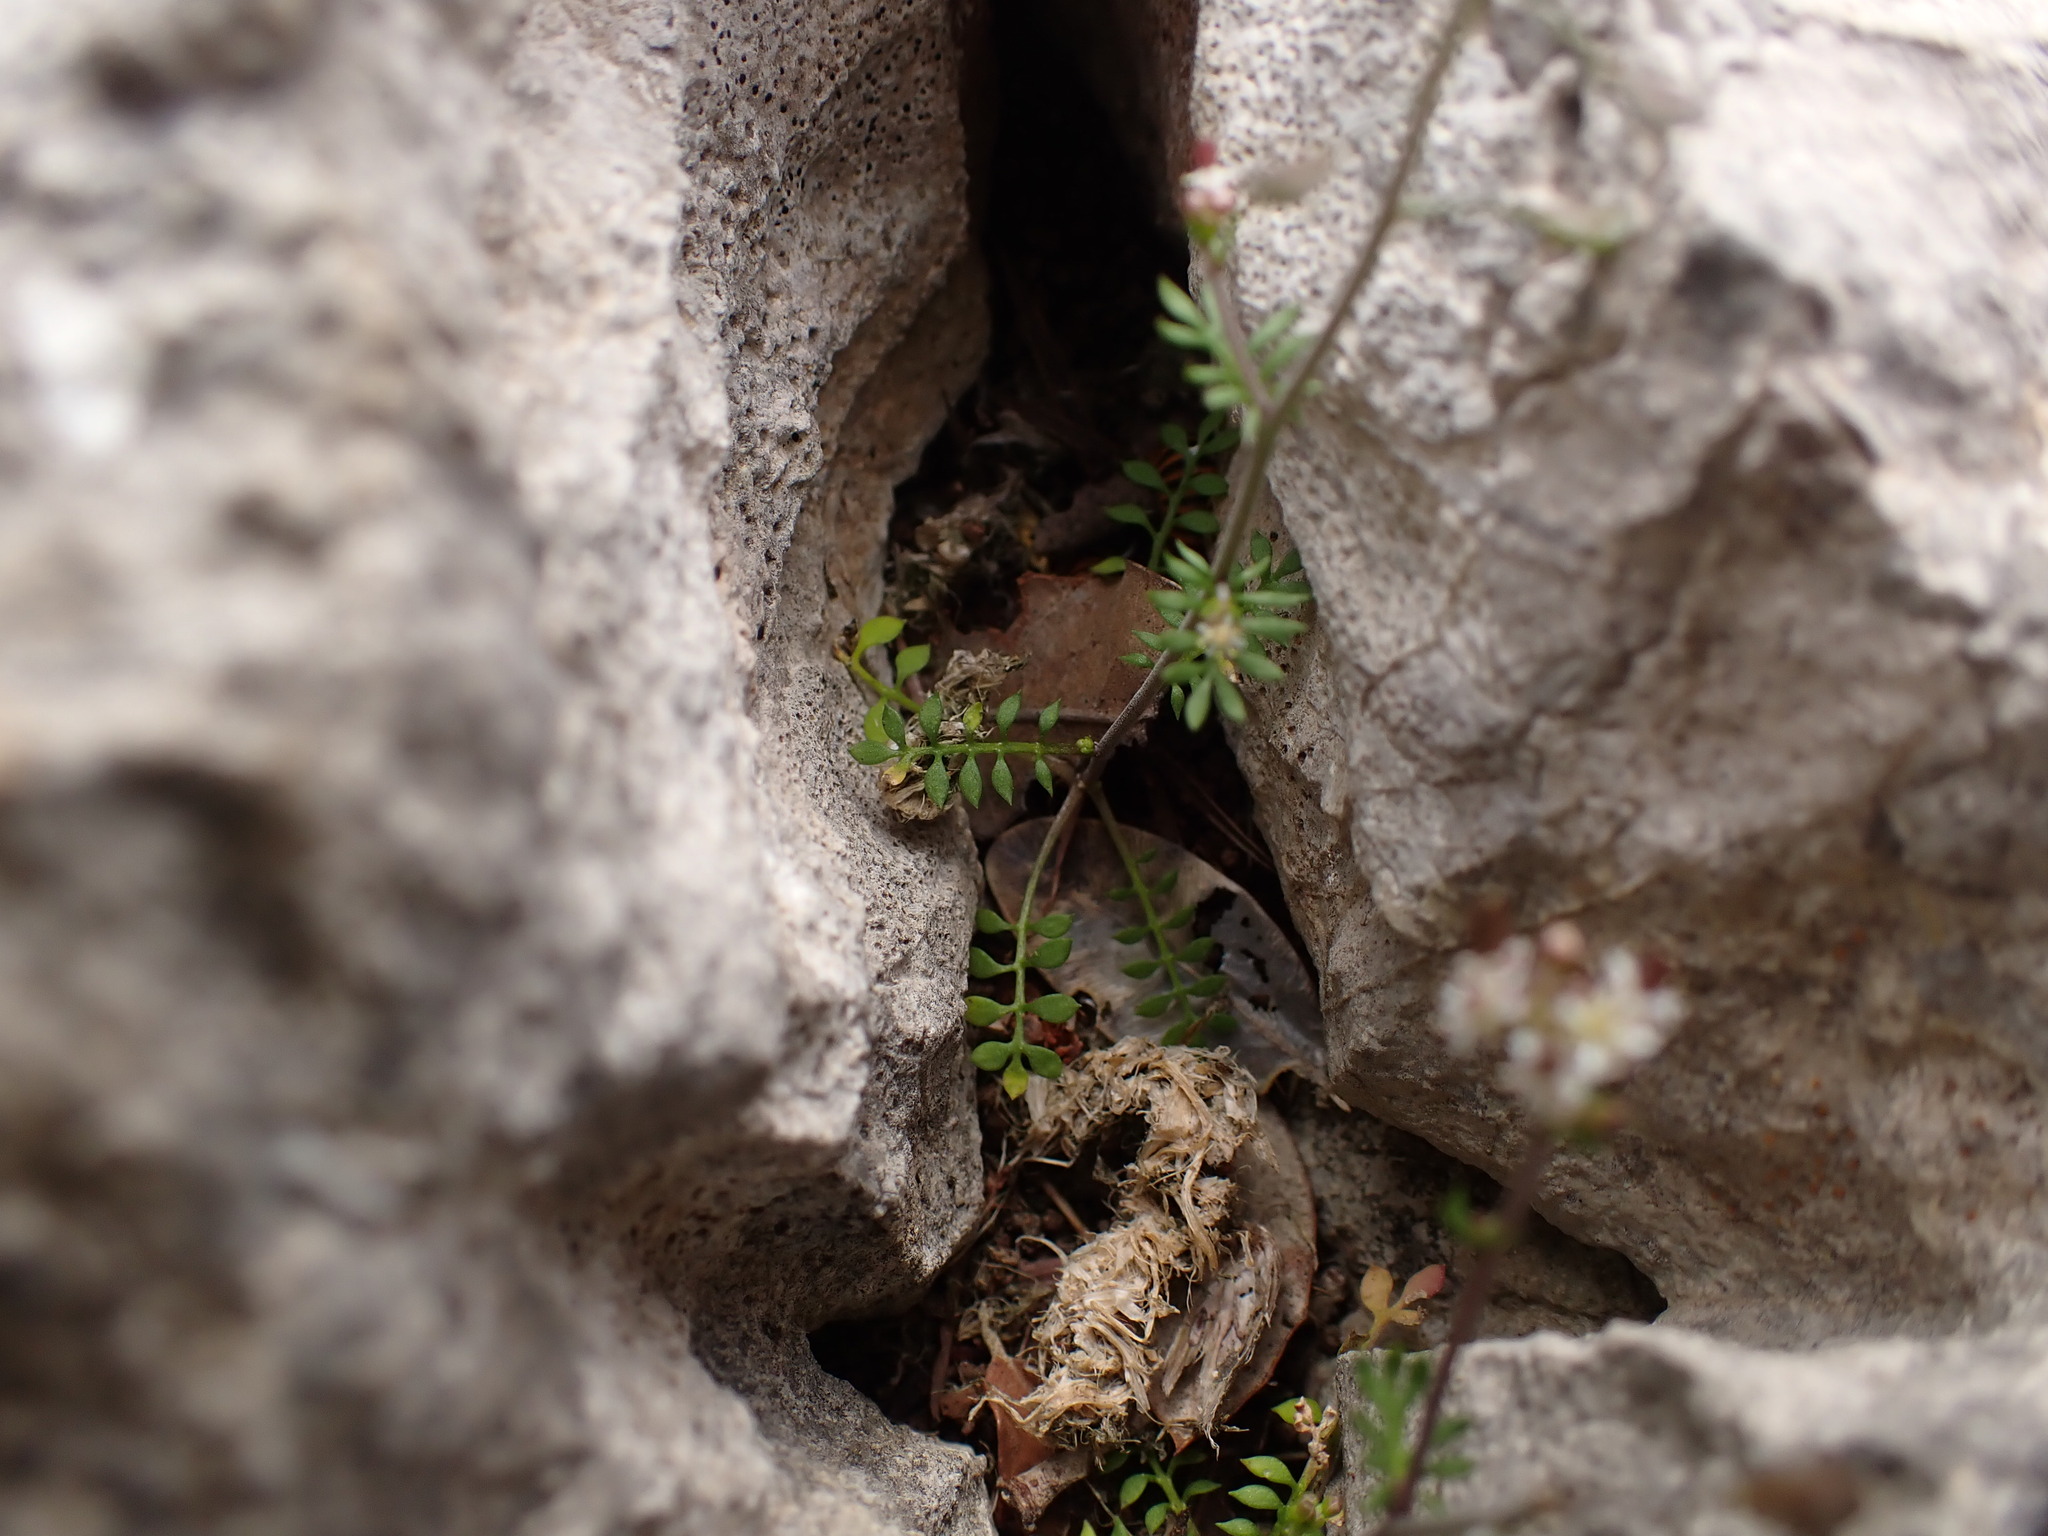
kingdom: Plantae
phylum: Tracheophyta
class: Magnoliopsida
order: Brassicales
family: Brassicaceae
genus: Hornungia
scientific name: Hornungia petraea
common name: Hutchinsia
